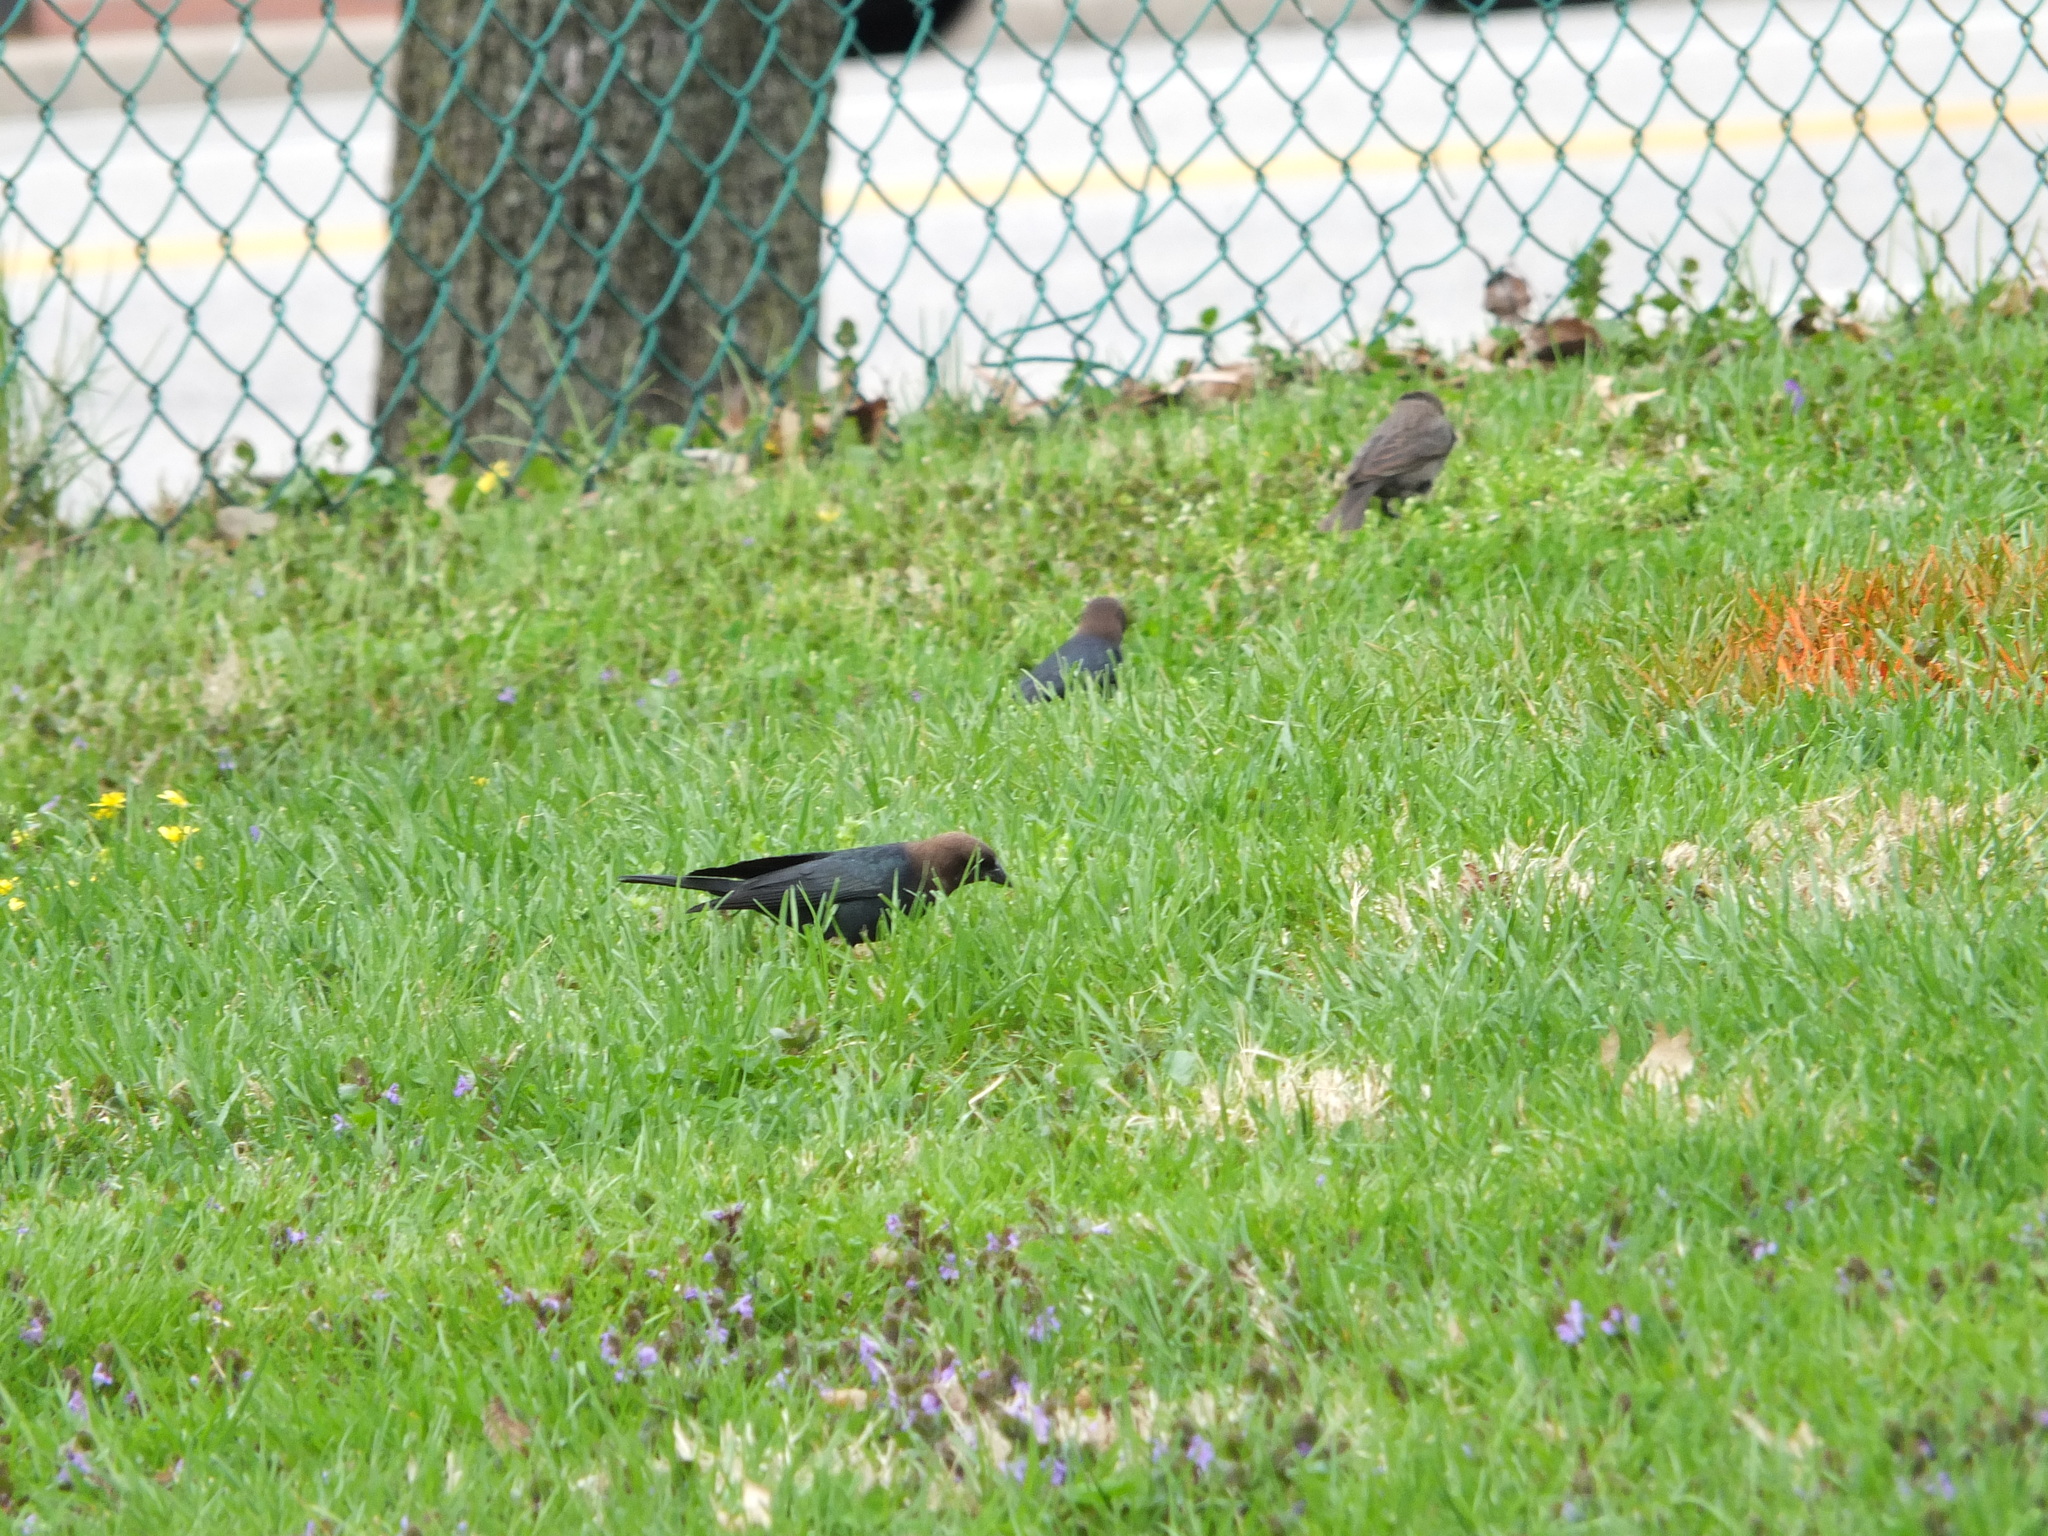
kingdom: Animalia
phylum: Chordata
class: Aves
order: Passeriformes
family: Icteridae
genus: Molothrus
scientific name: Molothrus ater
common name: Brown-headed cowbird
